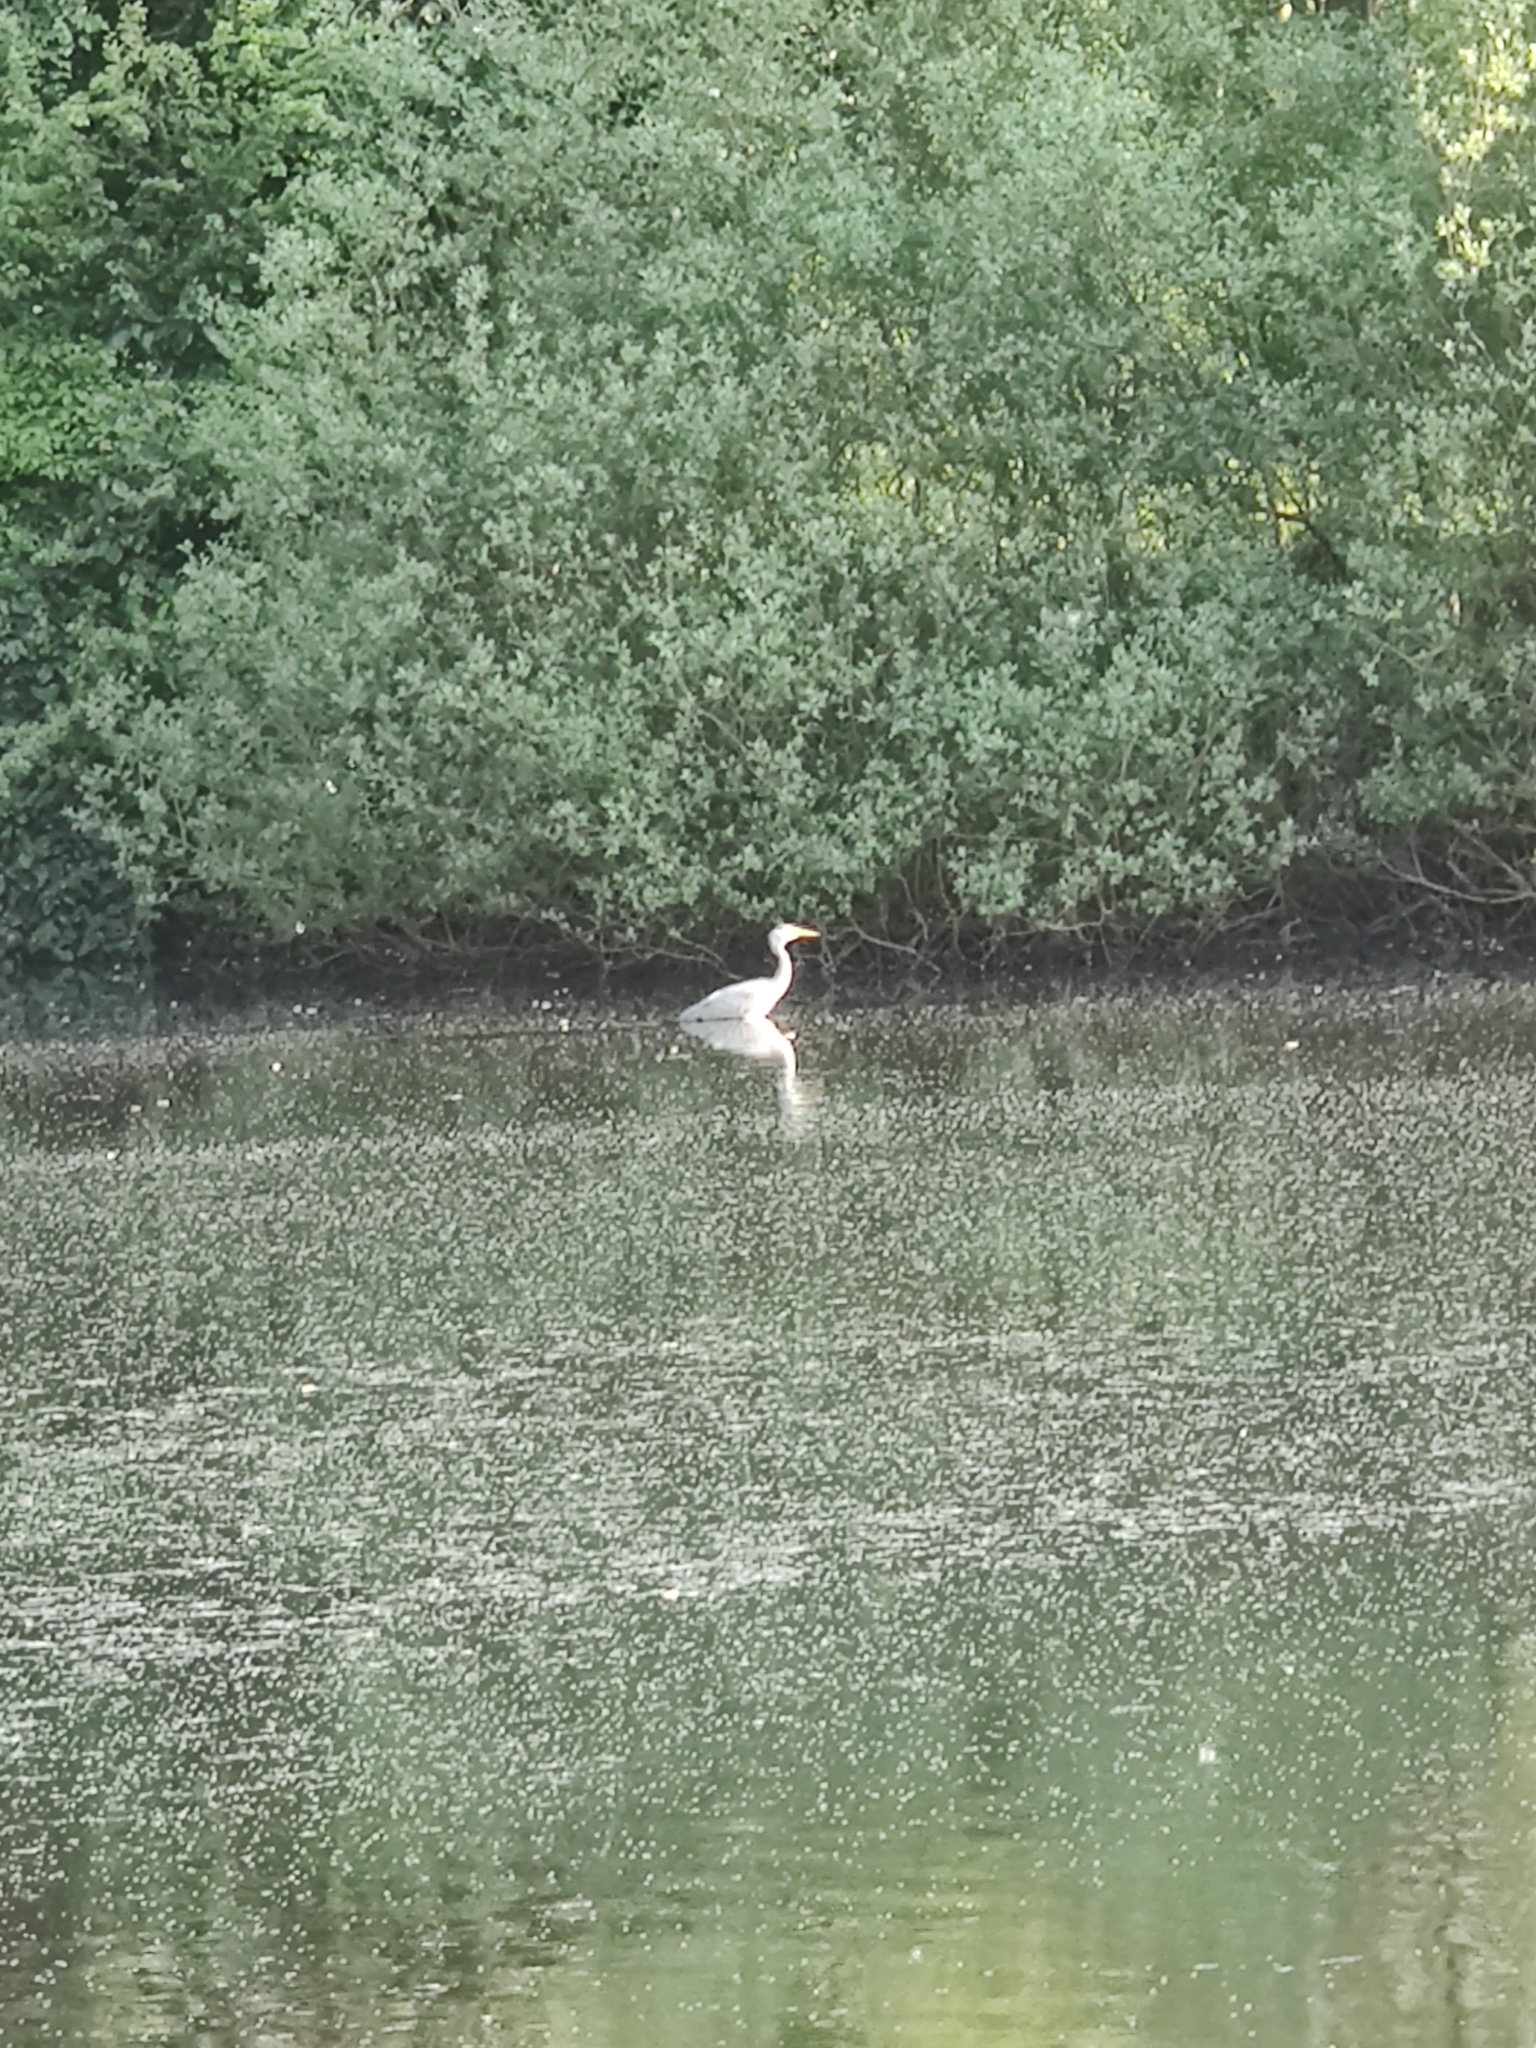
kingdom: Animalia
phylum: Chordata
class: Aves
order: Pelecaniformes
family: Ardeidae
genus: Ardea
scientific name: Ardea cinerea
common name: Grey heron
